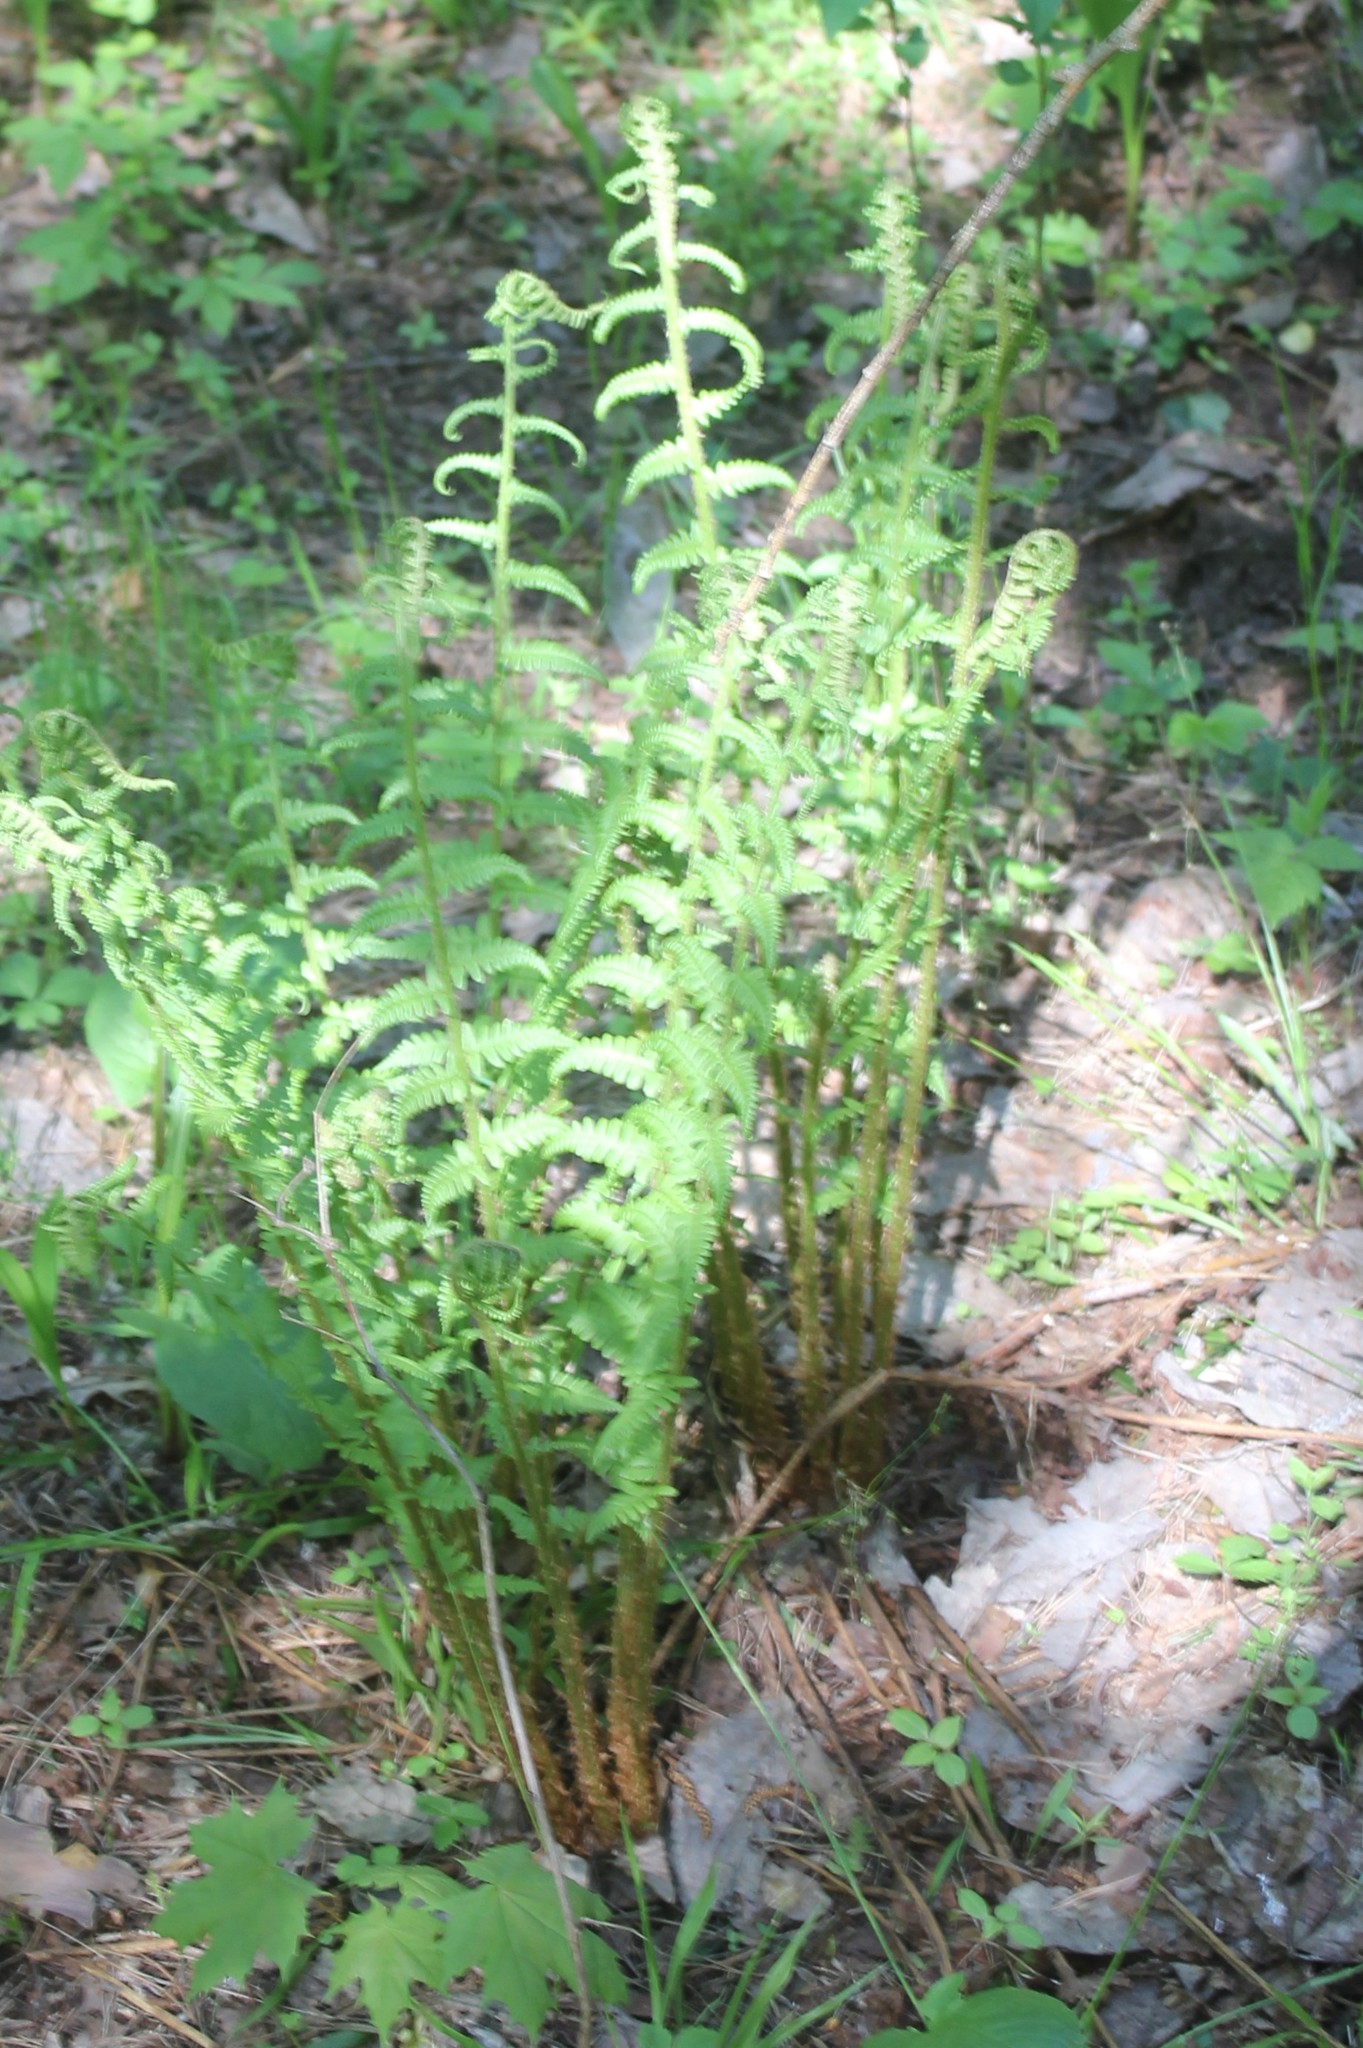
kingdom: Plantae
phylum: Tracheophyta
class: Polypodiopsida
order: Polypodiales
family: Dryopteridaceae
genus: Dryopteris
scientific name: Dryopteris filix-mas
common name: Male fern
